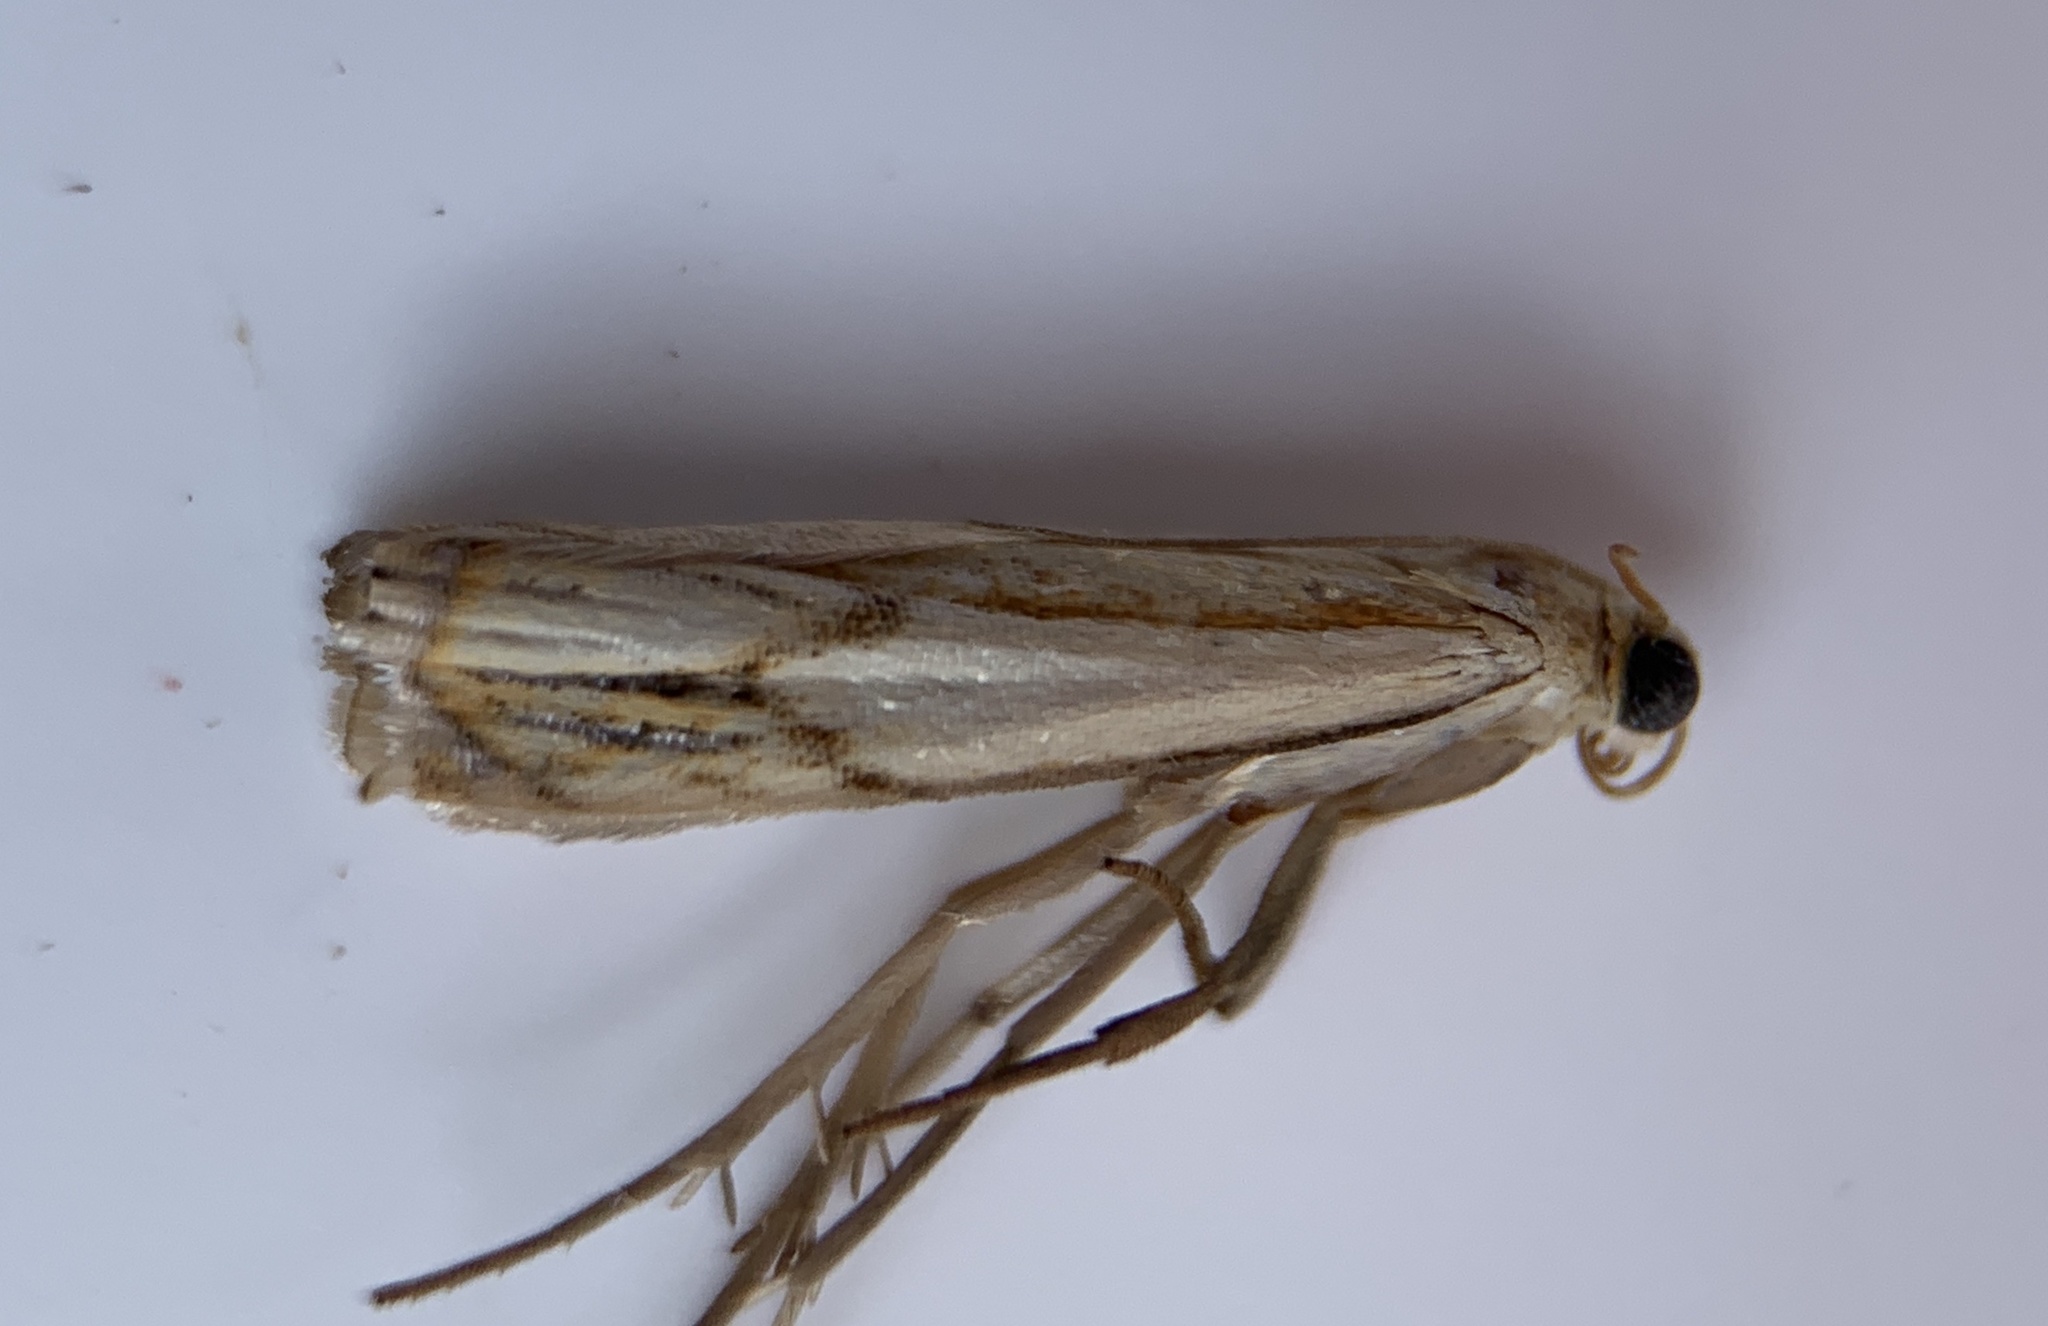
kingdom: Animalia
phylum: Arthropoda
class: Insecta
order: Lepidoptera
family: Crambidae
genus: Crambus
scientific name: Crambus agitatellus
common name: Double-banded grass-veneer
